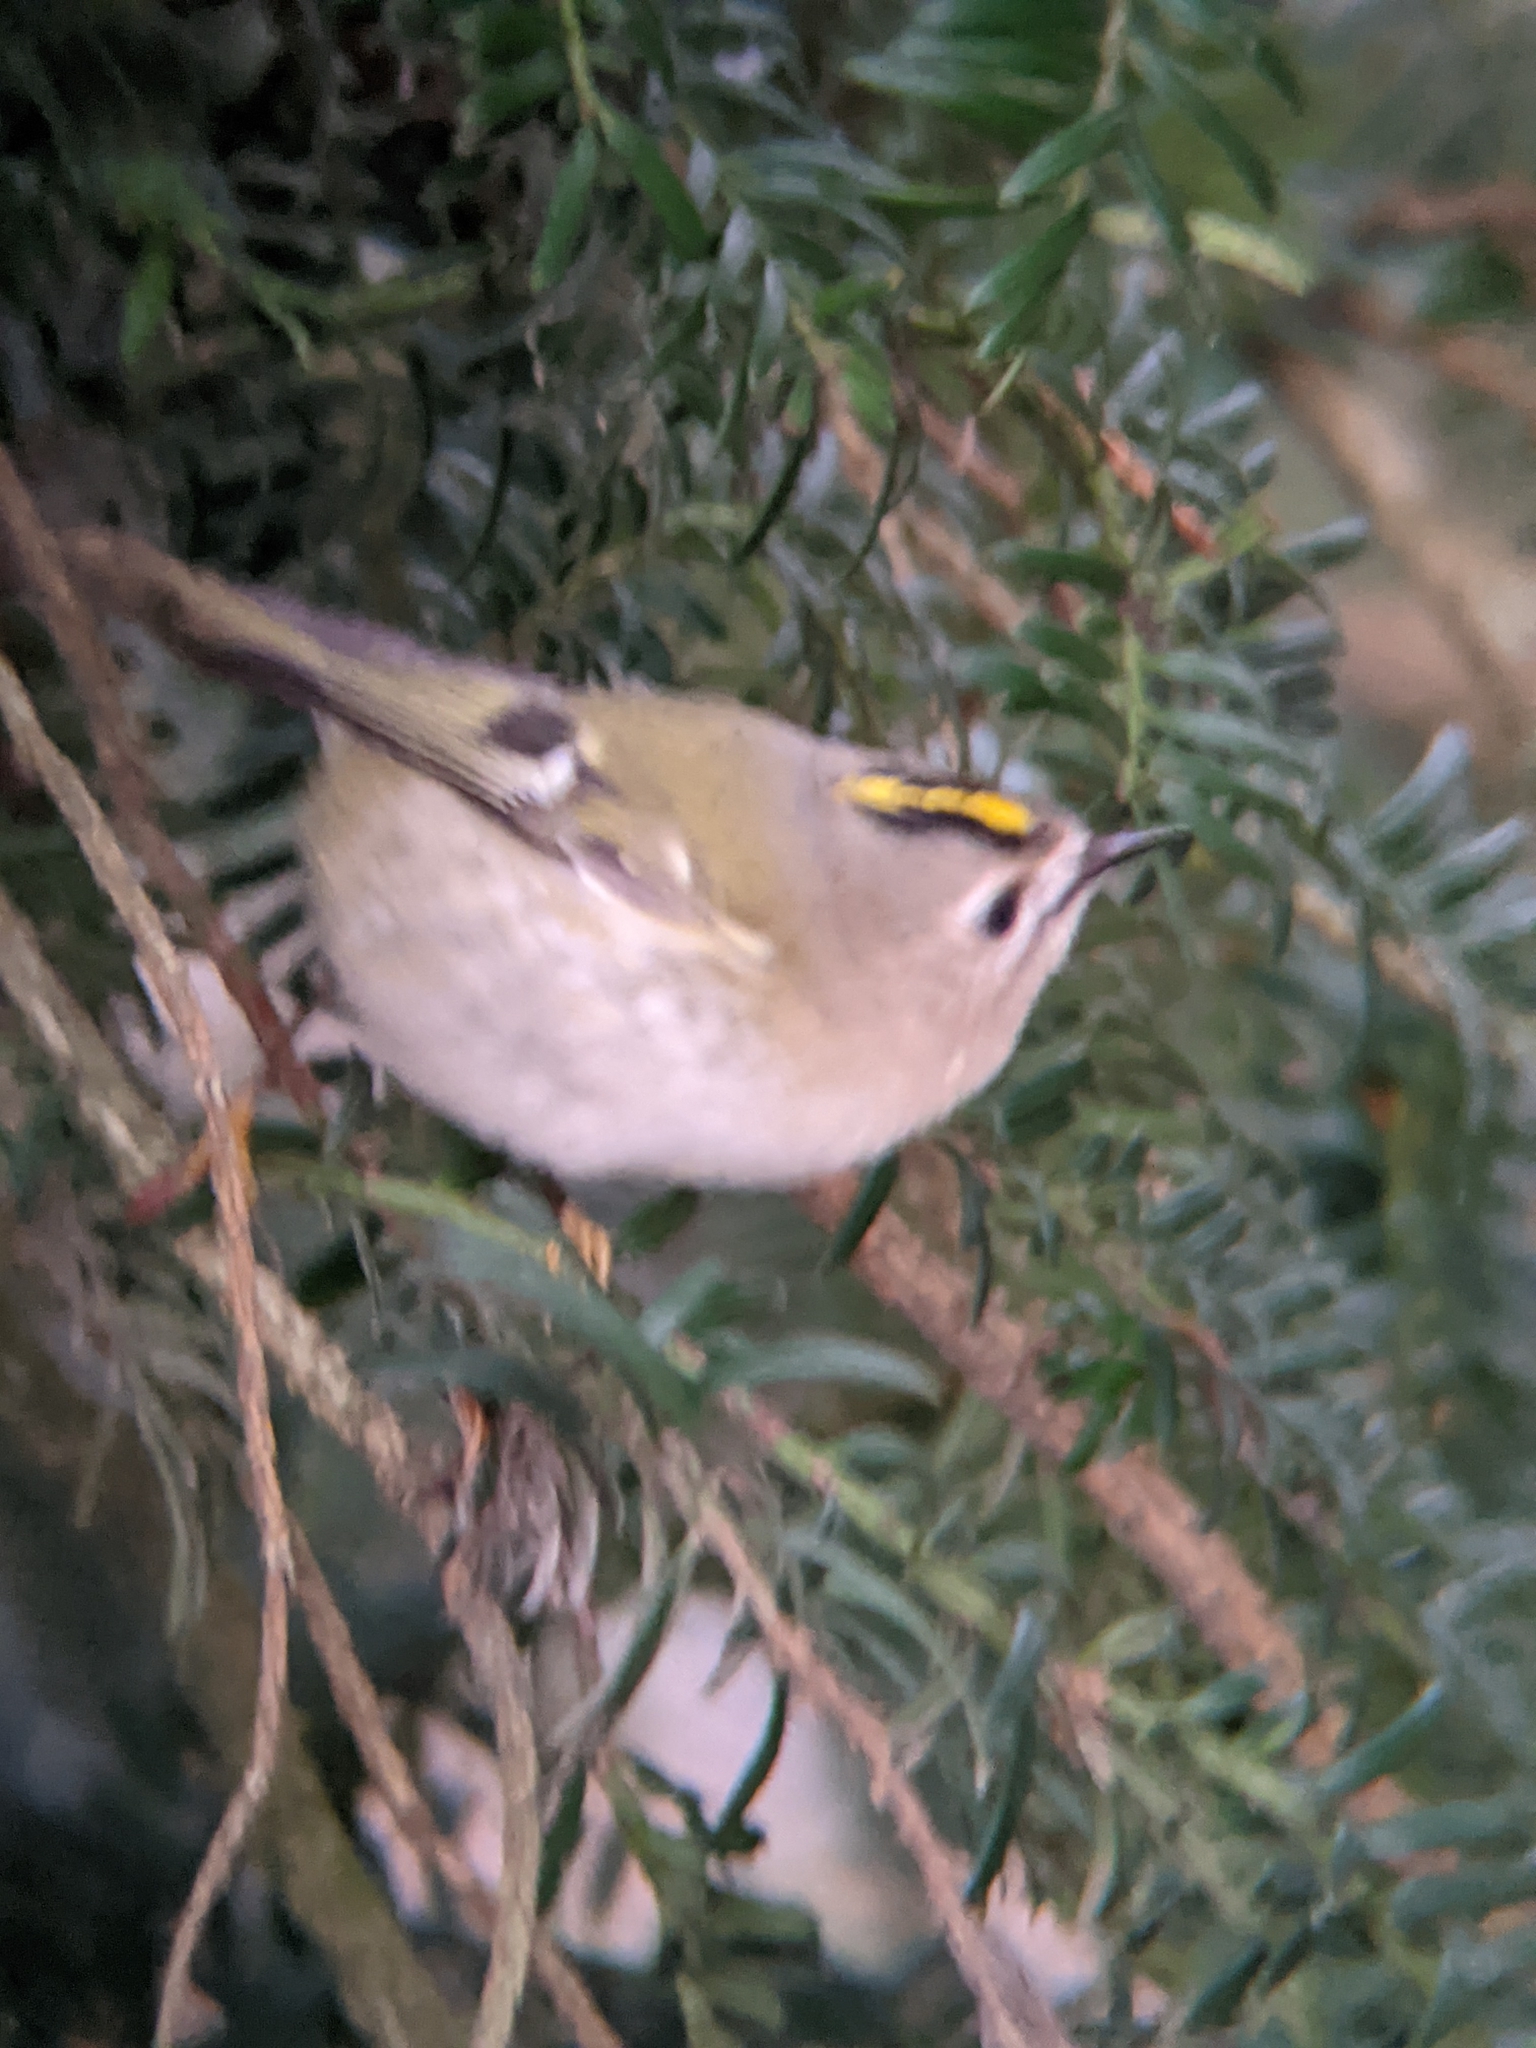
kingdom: Animalia
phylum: Chordata
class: Aves
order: Passeriformes
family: Regulidae
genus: Regulus
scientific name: Regulus regulus
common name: Goldcrest
